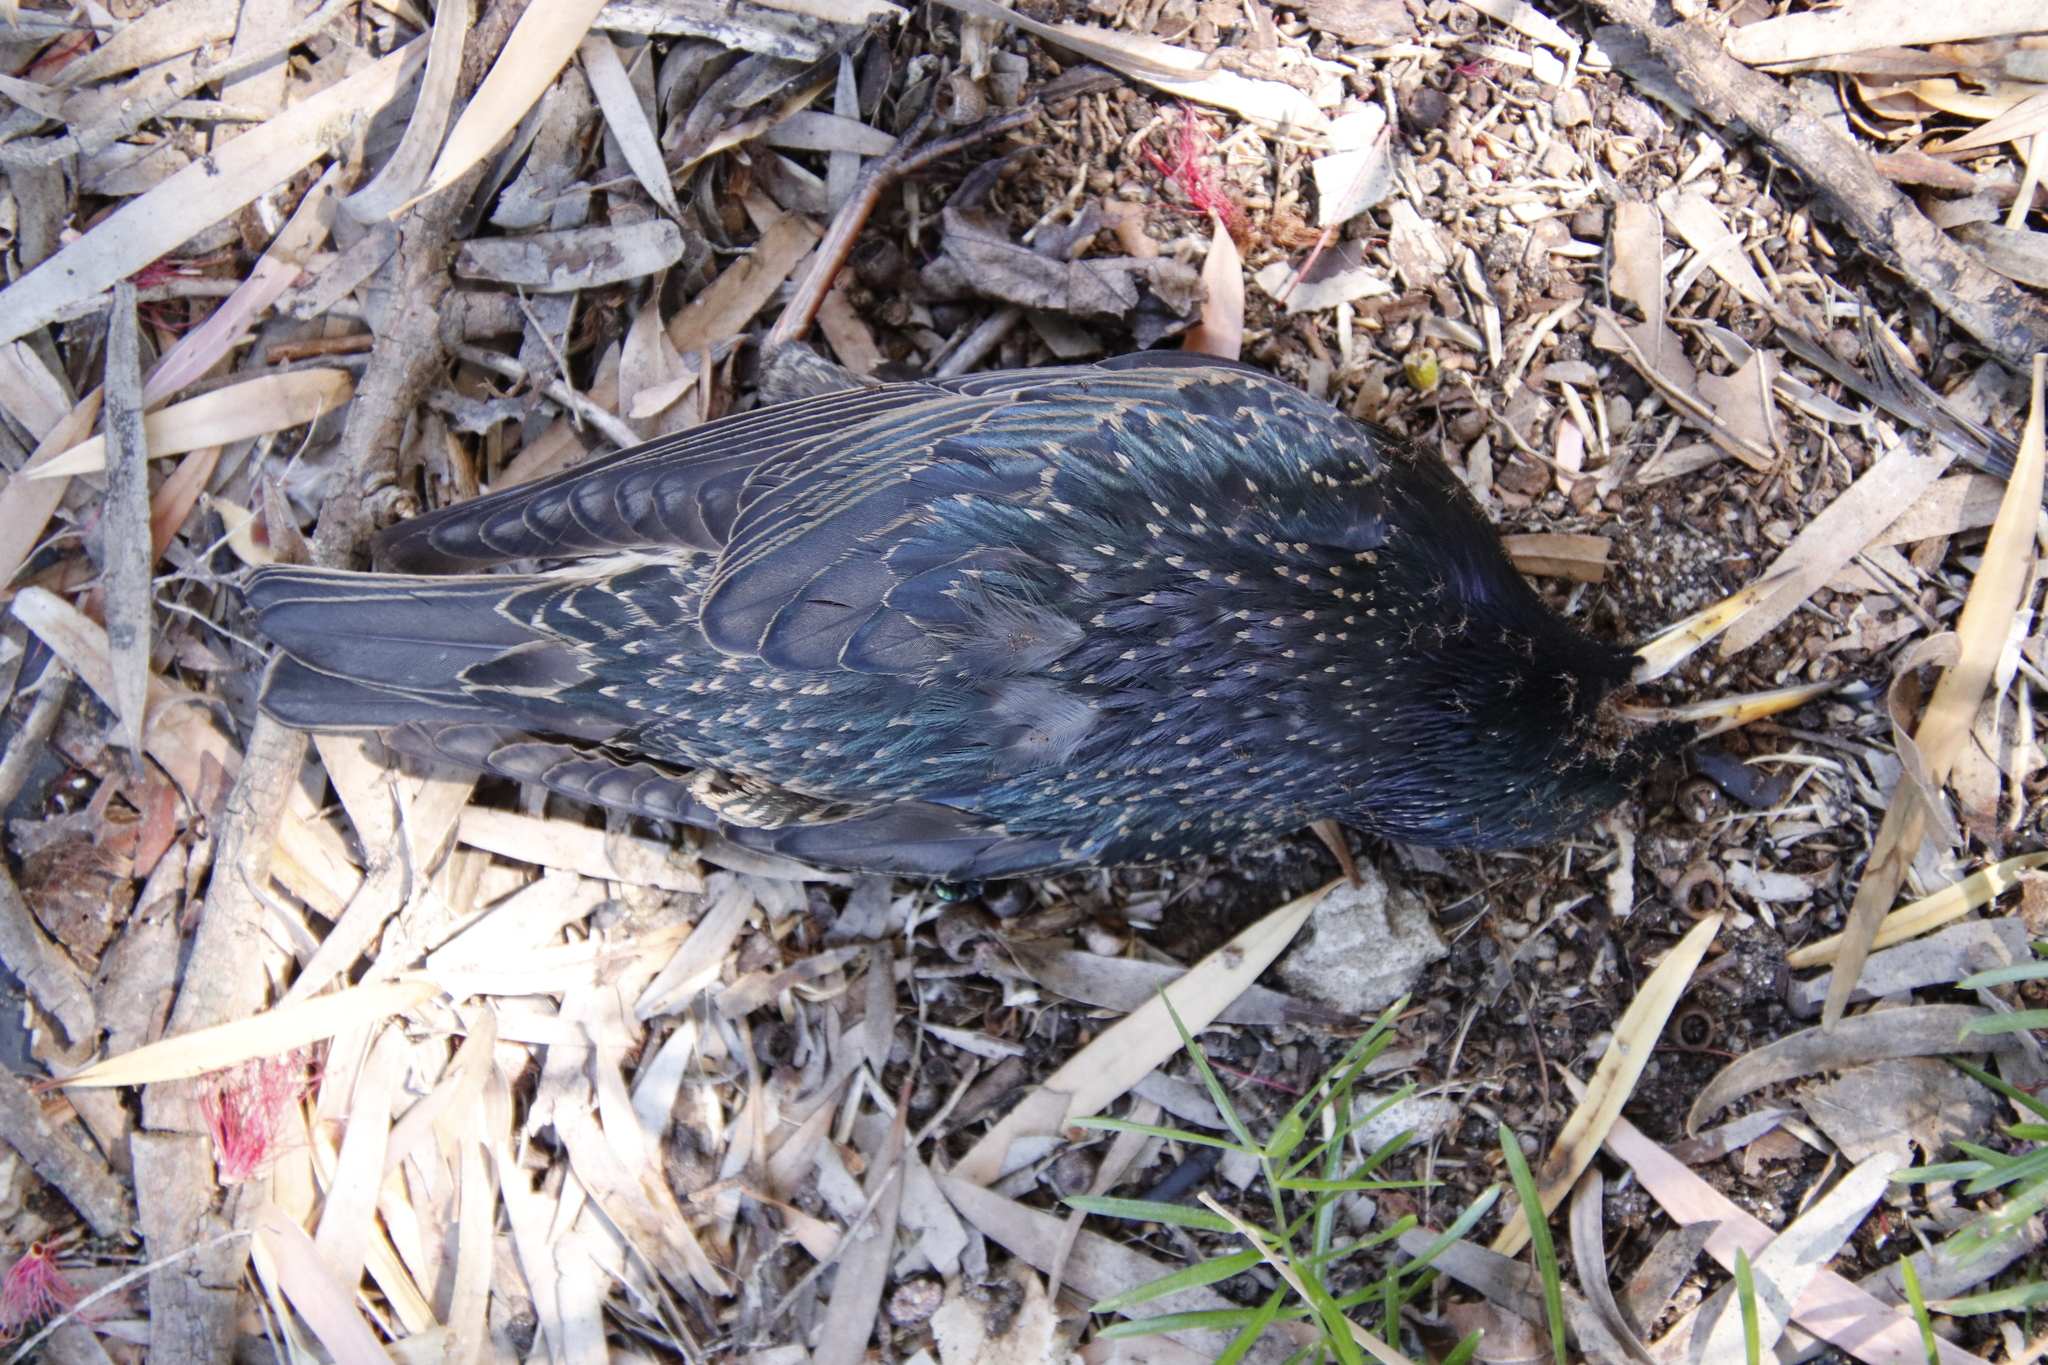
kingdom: Animalia
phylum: Chordata
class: Aves
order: Passeriformes
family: Sturnidae
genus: Sturnus
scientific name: Sturnus vulgaris
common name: Common starling
